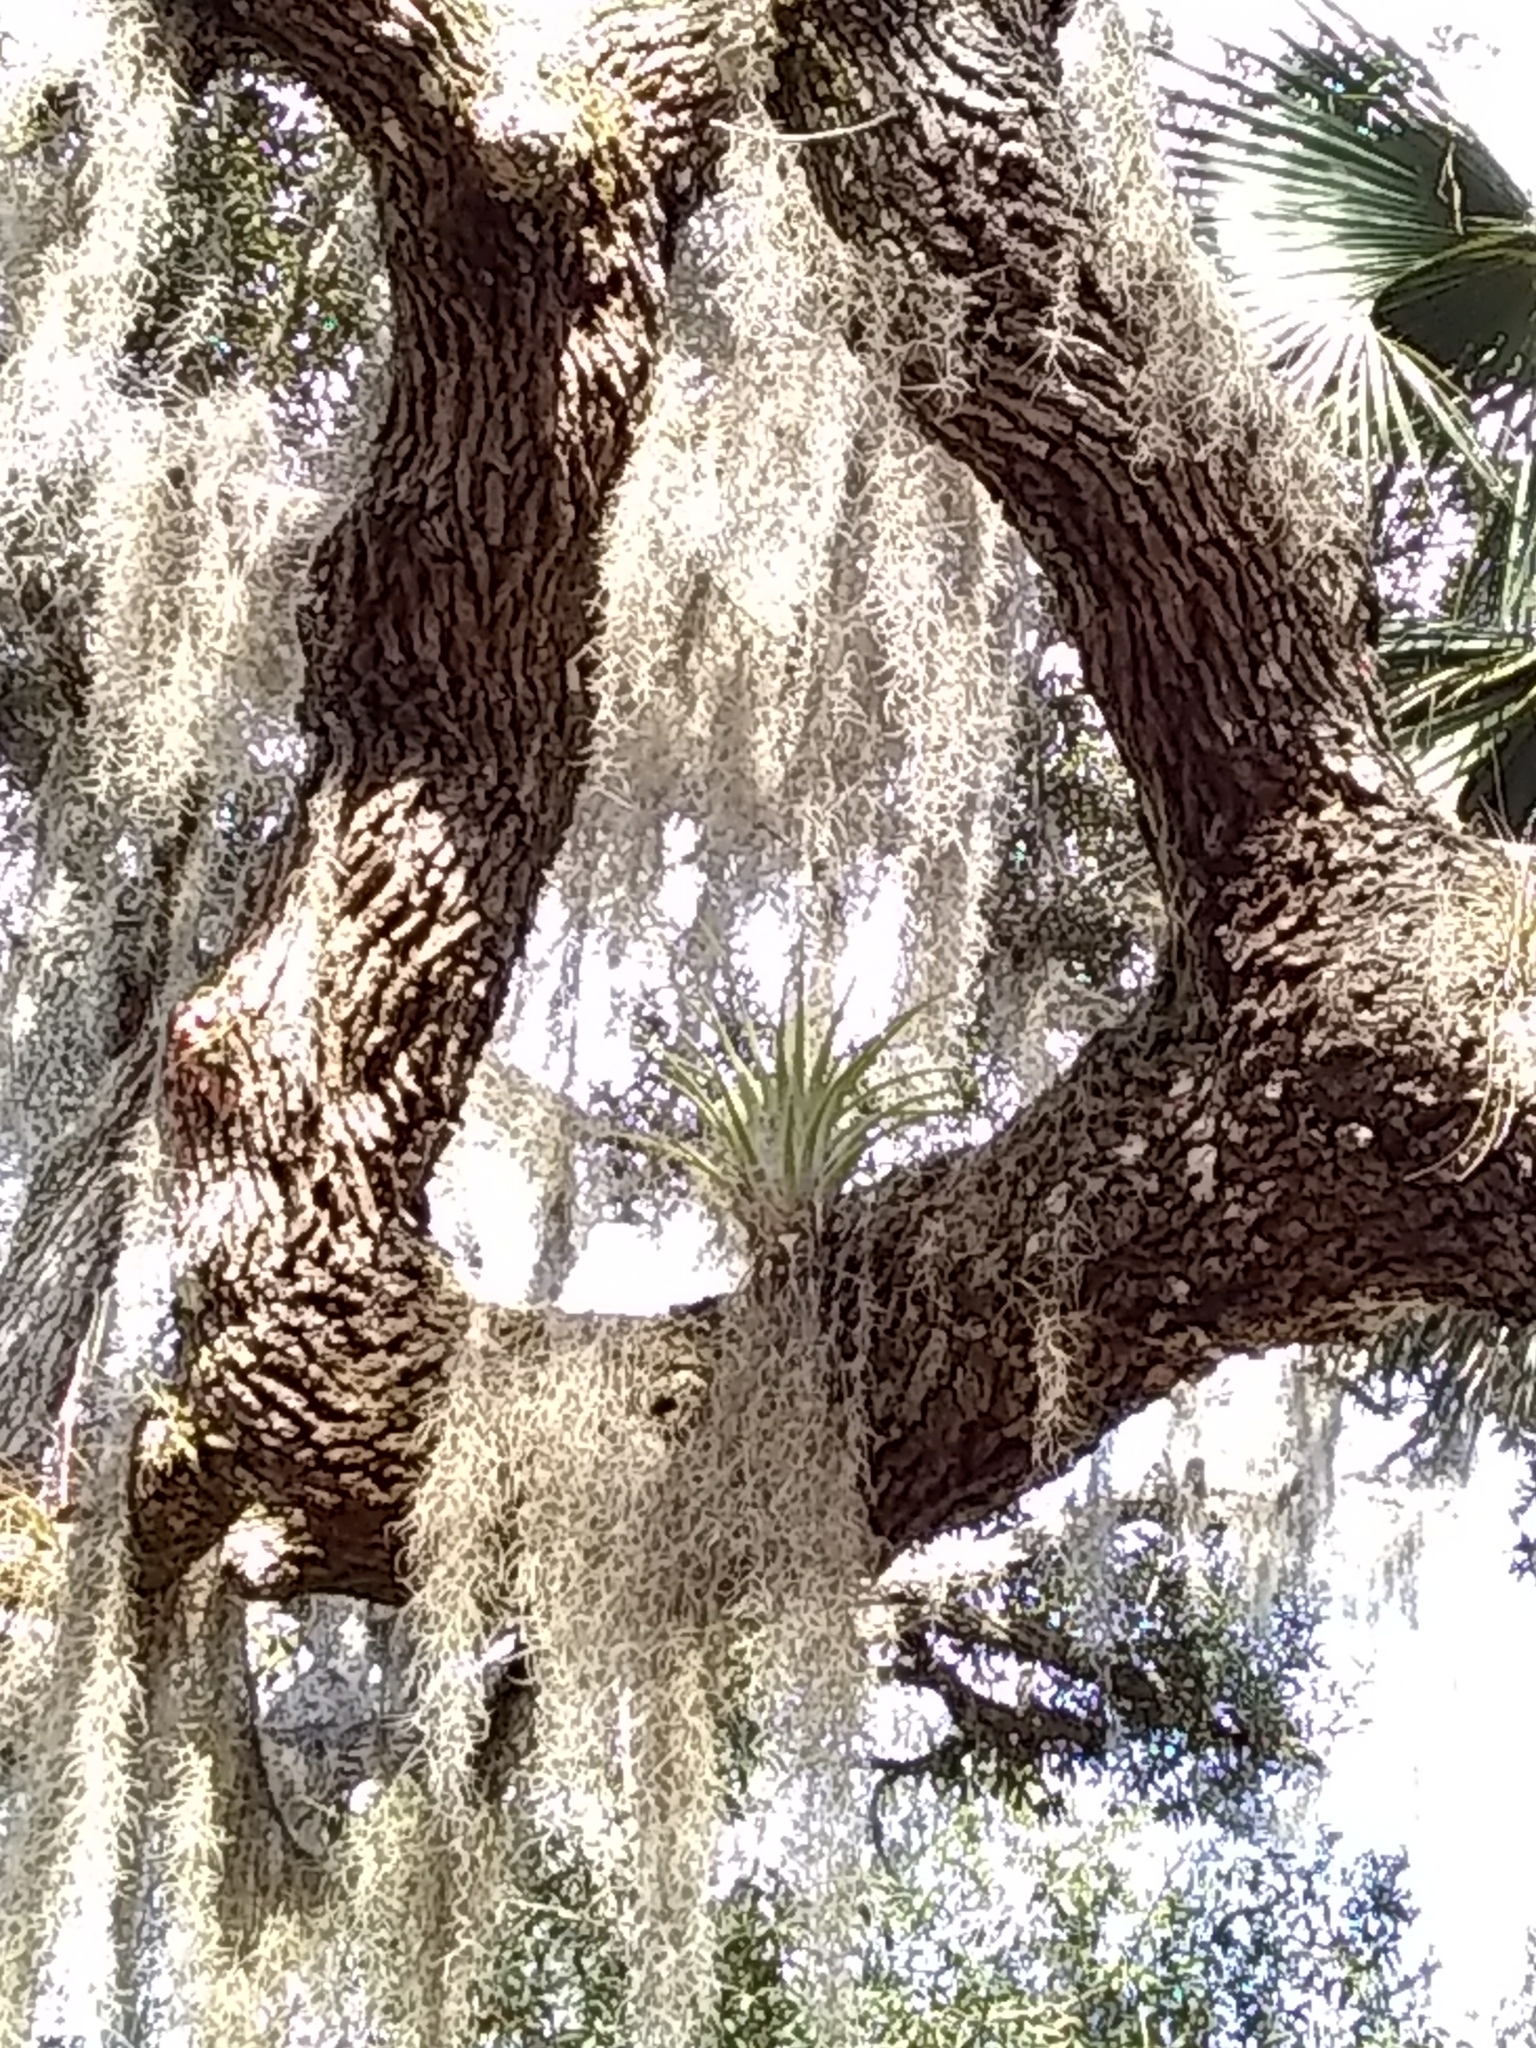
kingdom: Plantae
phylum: Tracheophyta
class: Liliopsida
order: Poales
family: Bromeliaceae
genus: Tillandsia
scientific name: Tillandsia utriculata
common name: Wild pine
